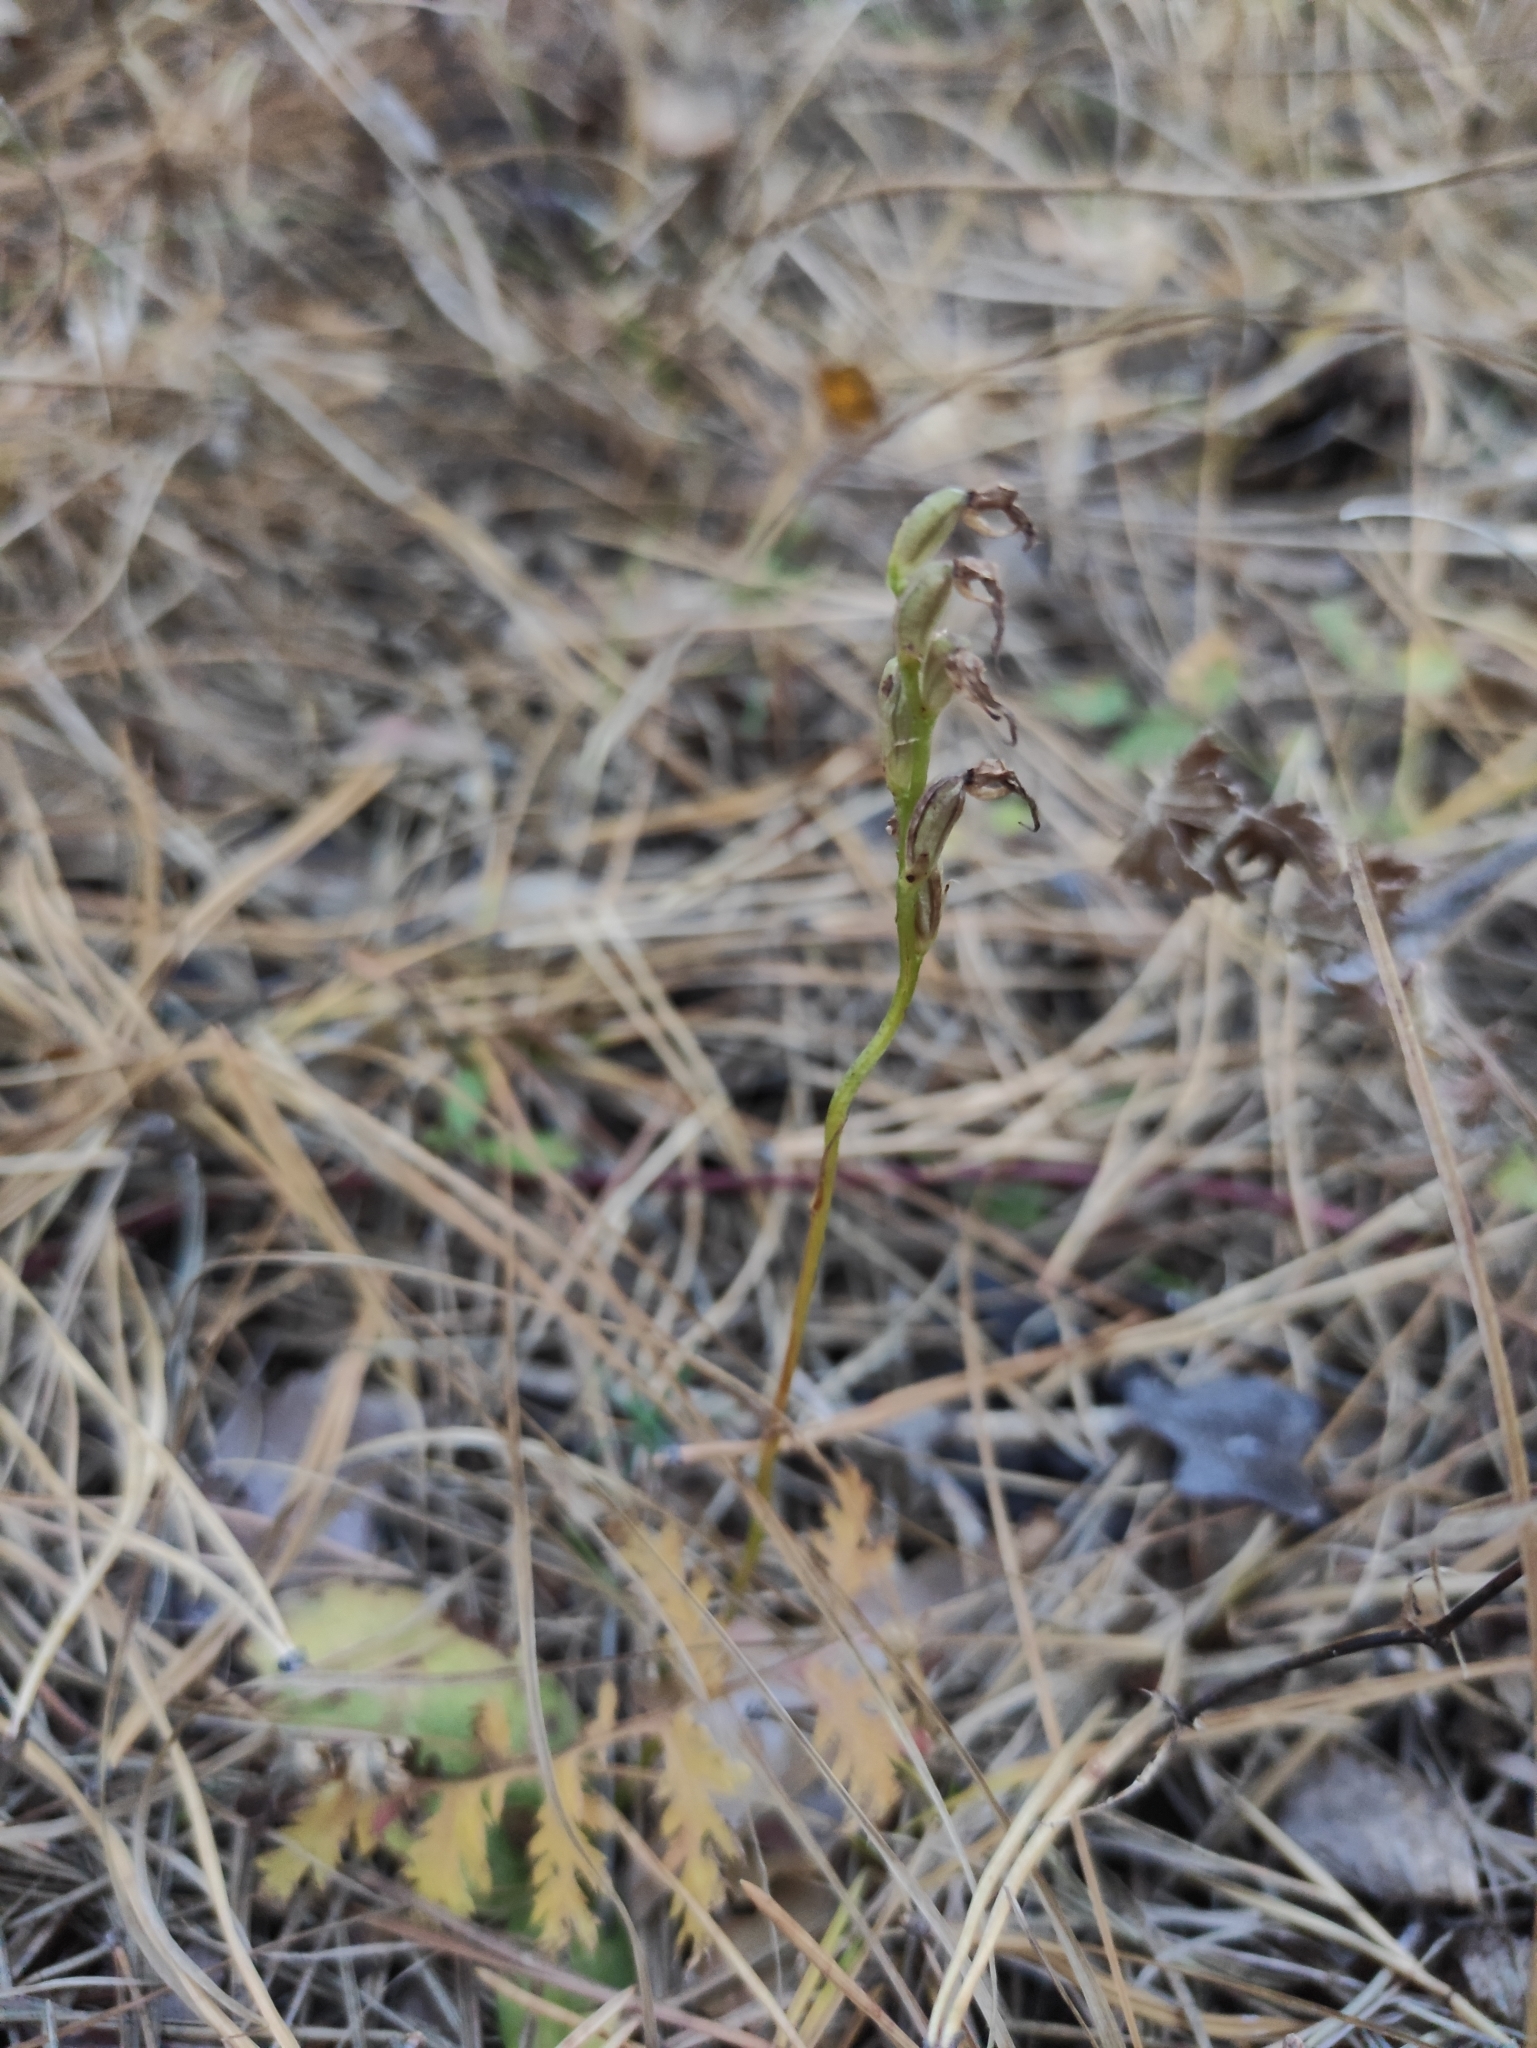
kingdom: Plantae
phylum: Tracheophyta
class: Liliopsida
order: Asparagales
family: Orchidaceae
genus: Hemipilia
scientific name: Hemipilia cucullata
